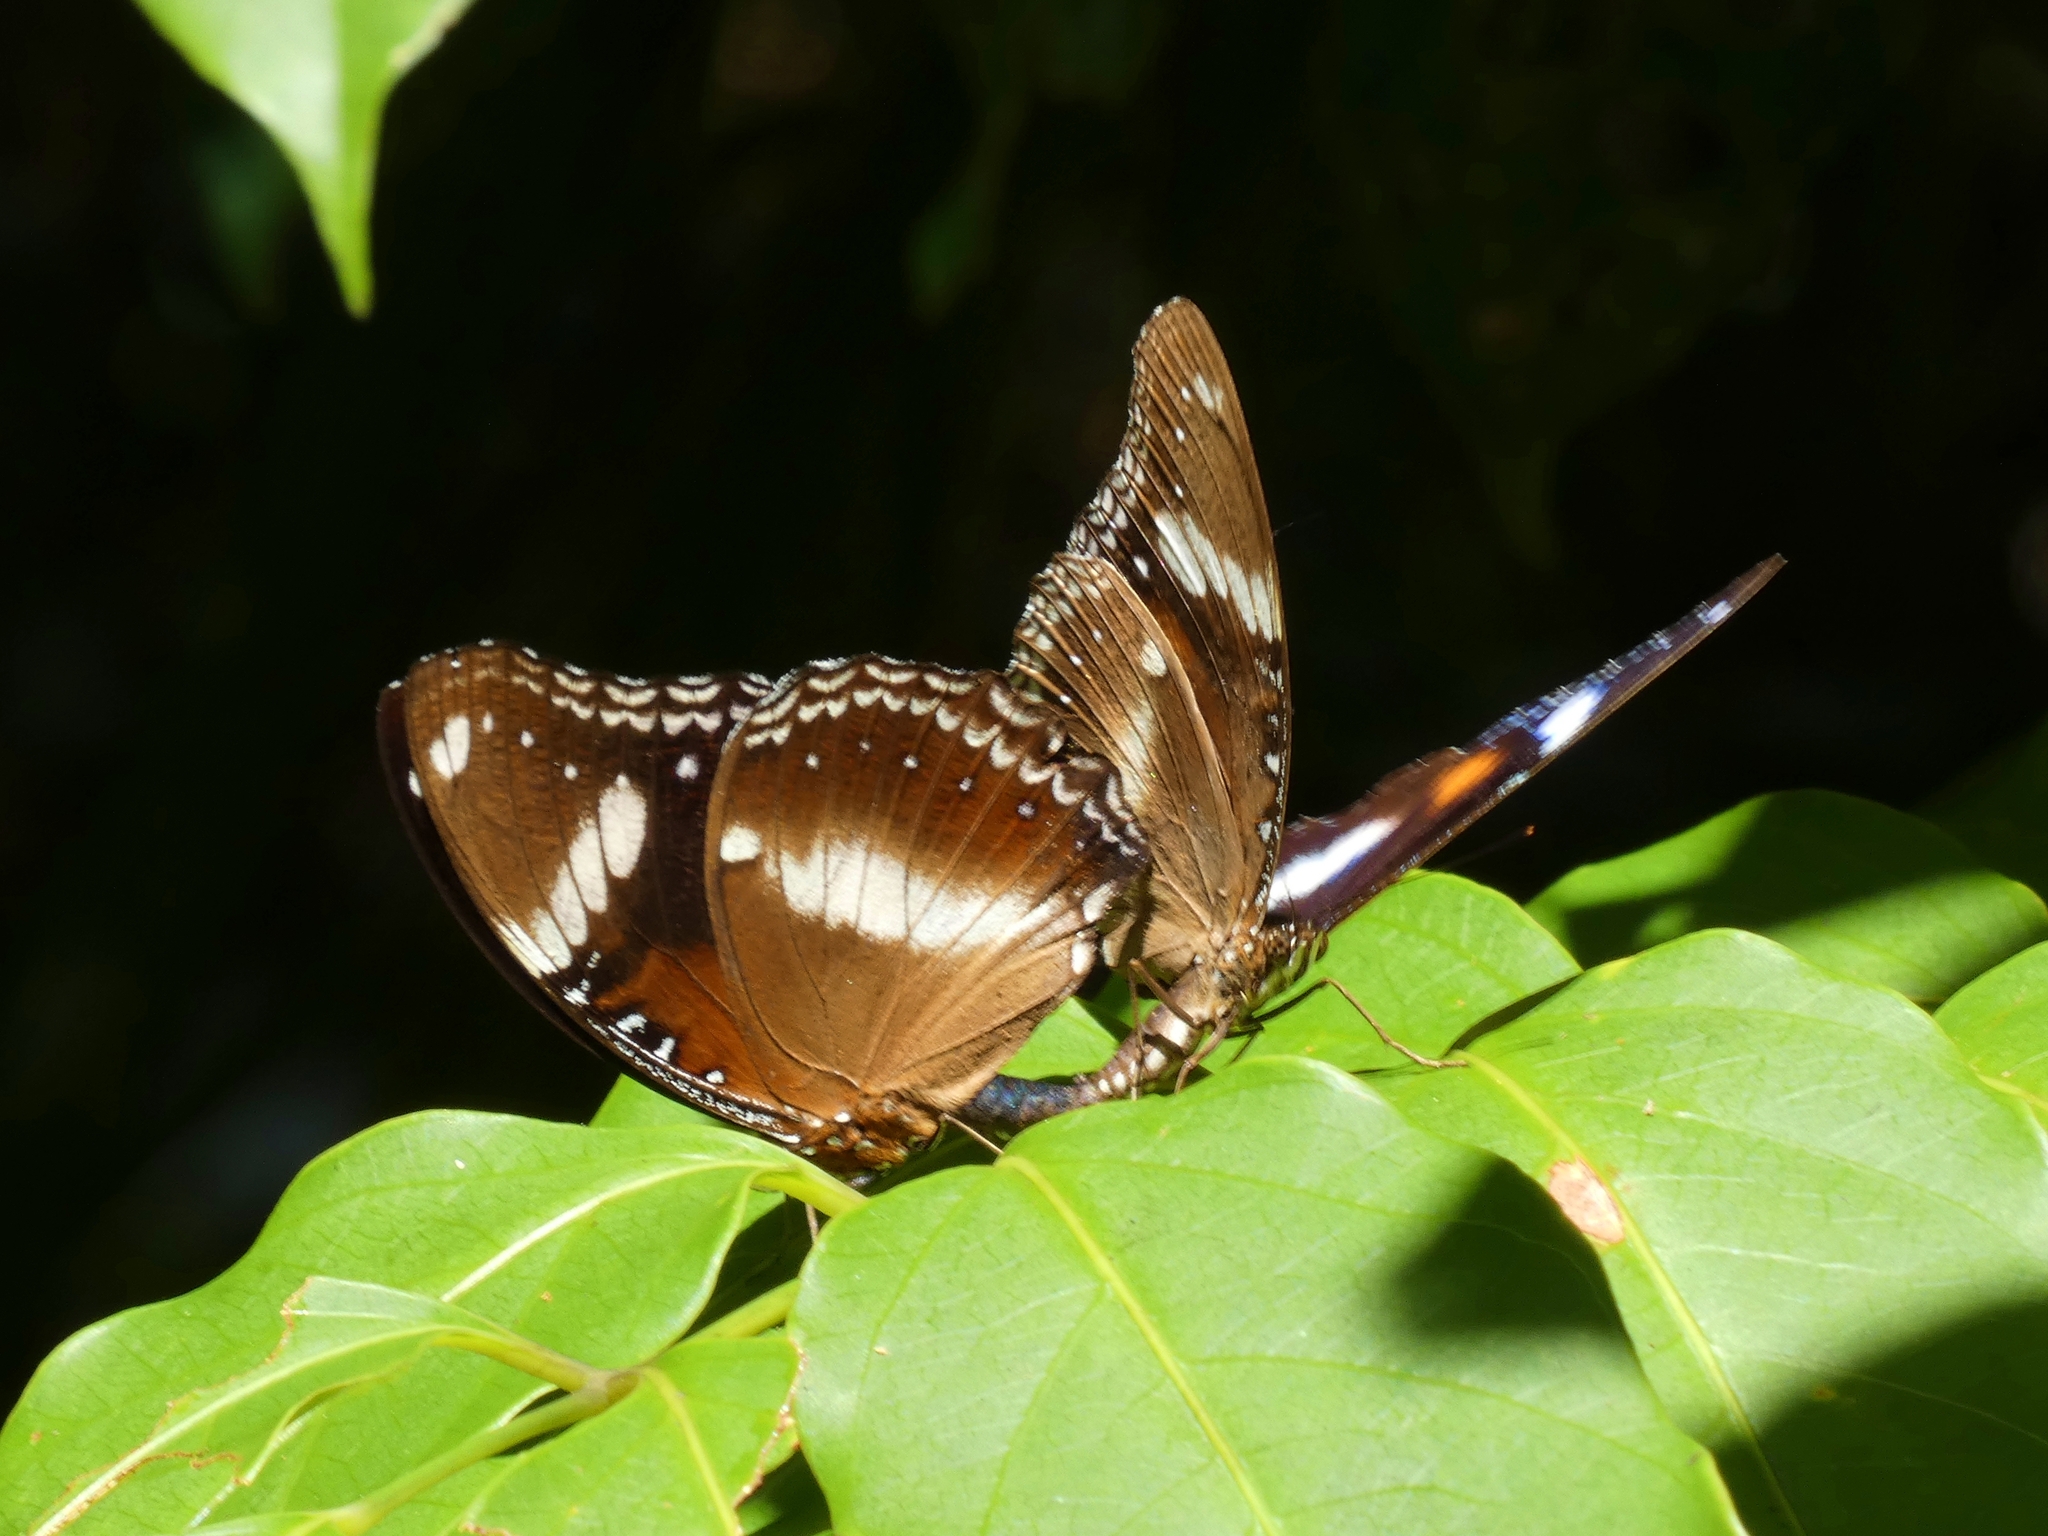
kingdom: Animalia
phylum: Arthropoda
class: Insecta
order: Lepidoptera
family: Nymphalidae
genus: Hypolimnas
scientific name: Hypolimnas bolina
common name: Great eggfly
